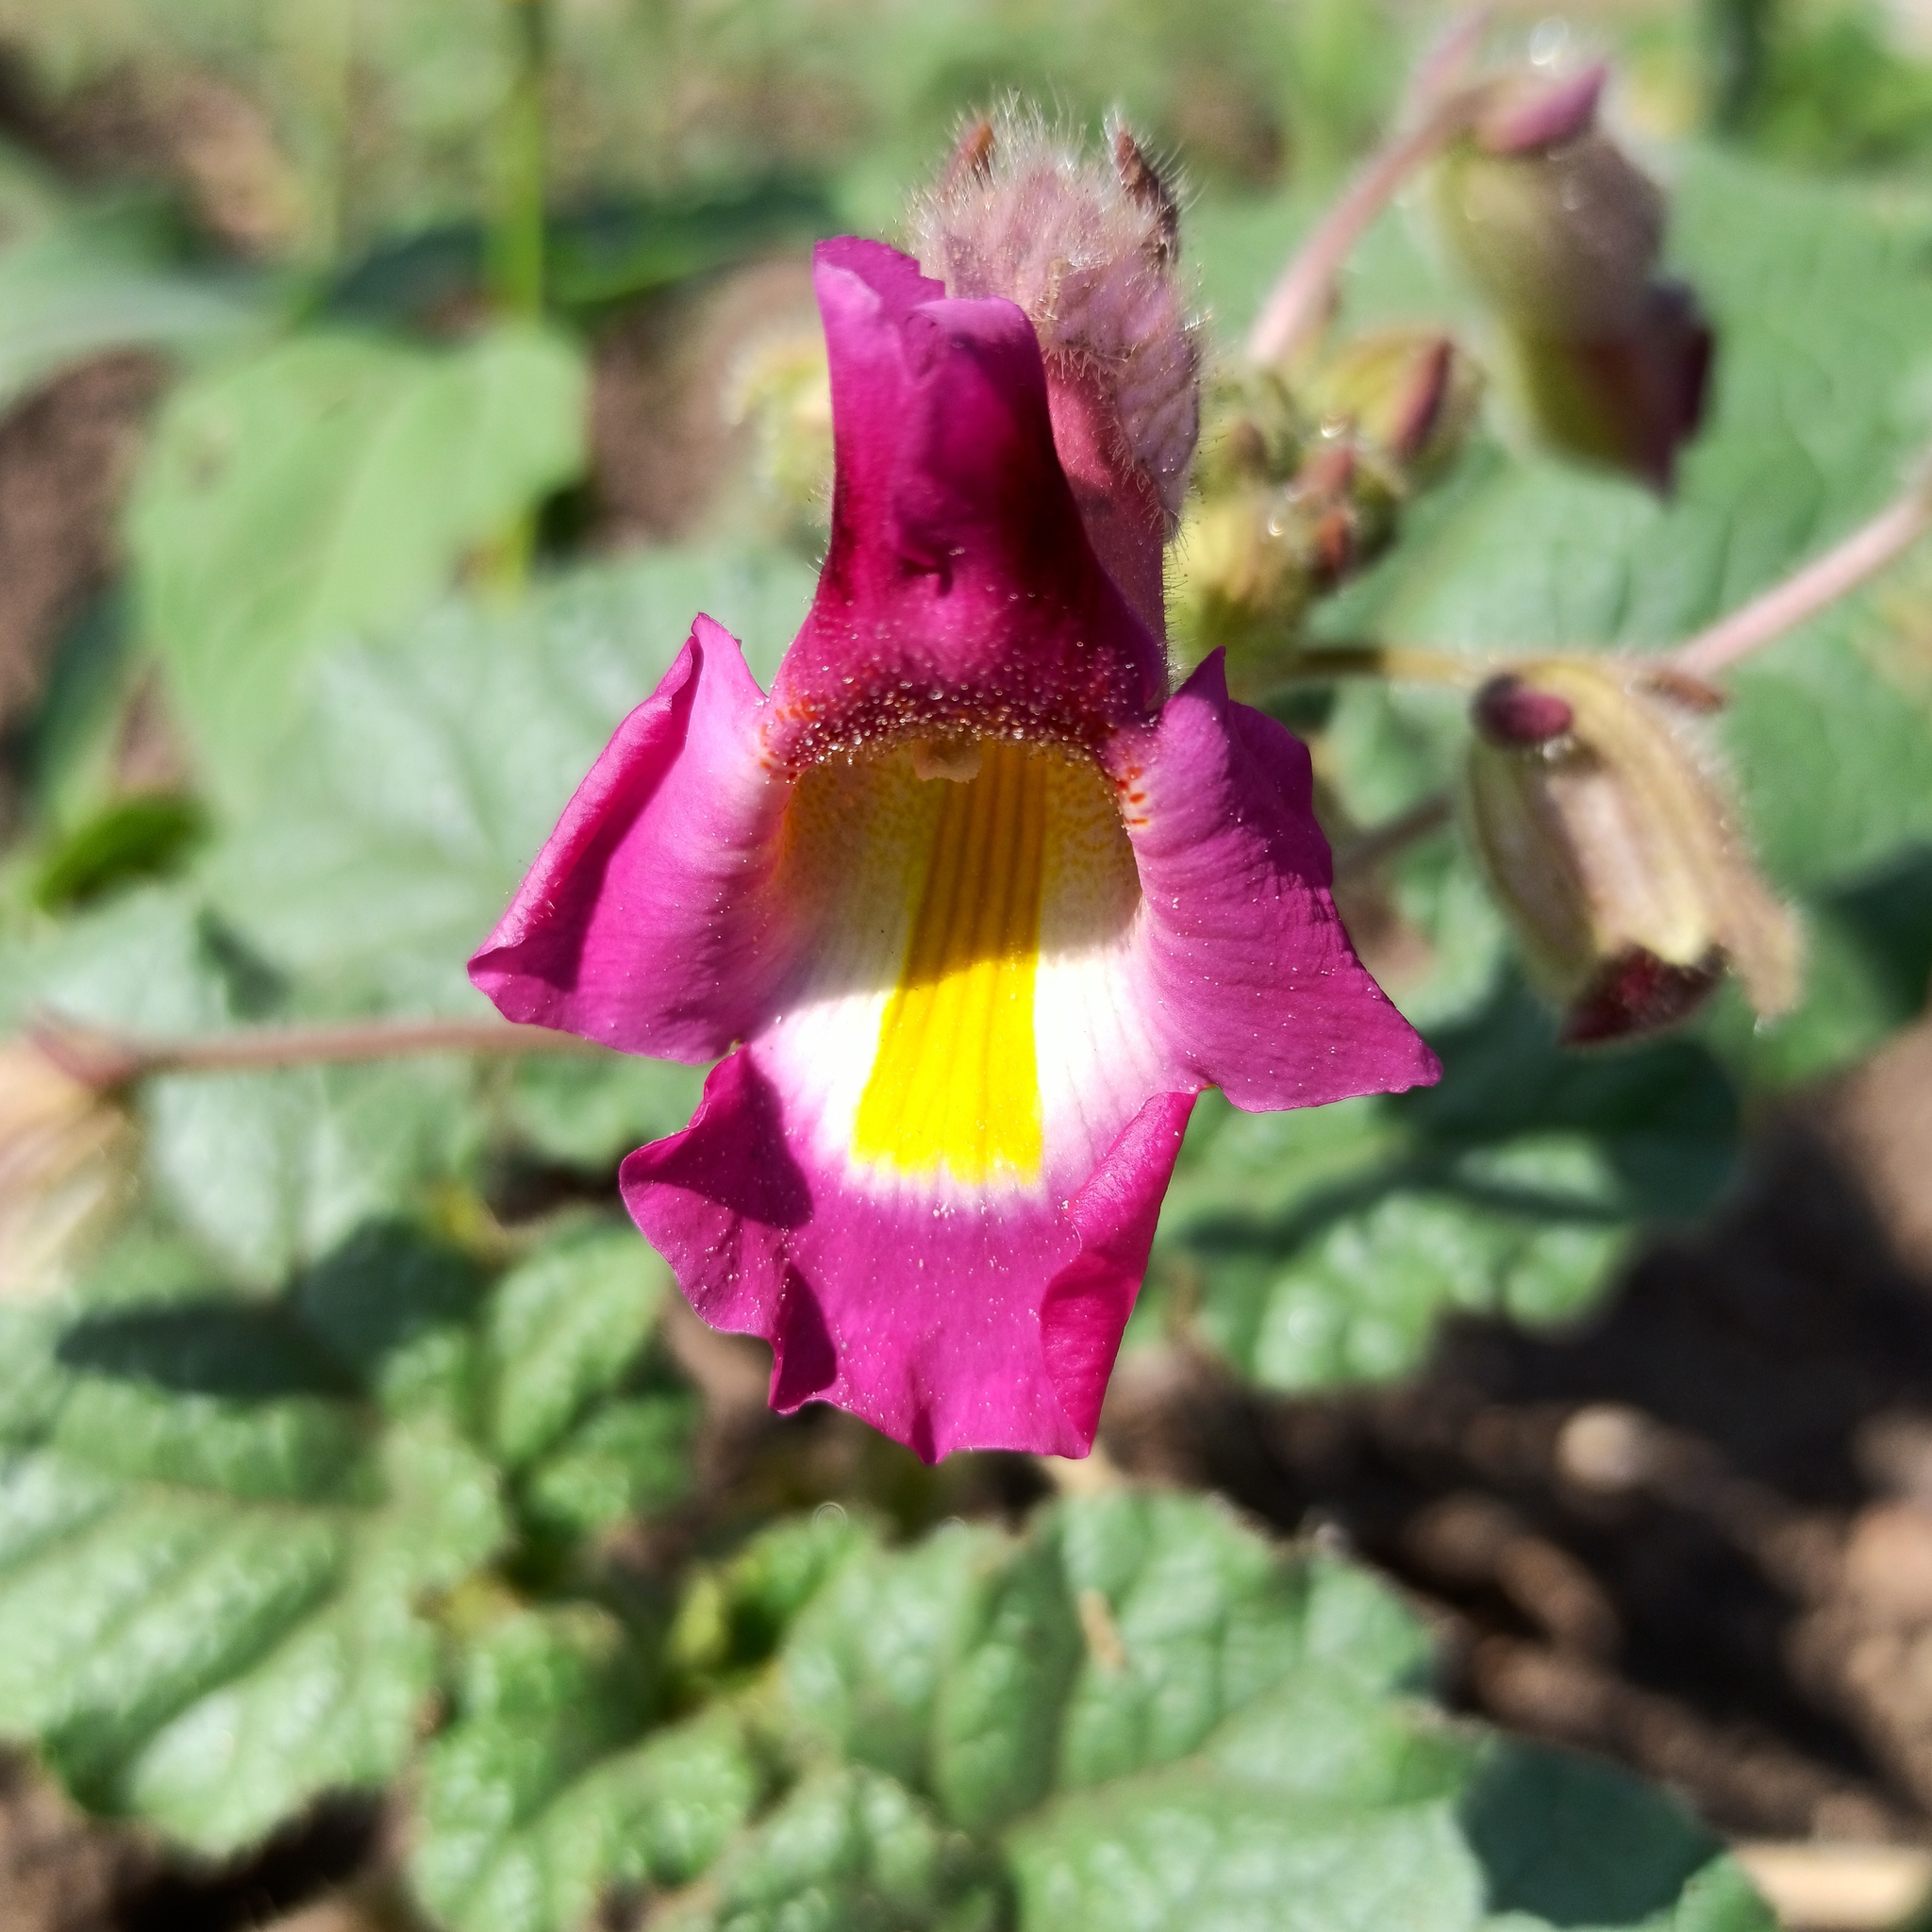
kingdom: Plantae
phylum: Tracheophyta
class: Magnoliopsida
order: Lamiales
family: Martyniaceae
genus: Proboscidea
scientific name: Proboscidea louisianica
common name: Elephant tusks
